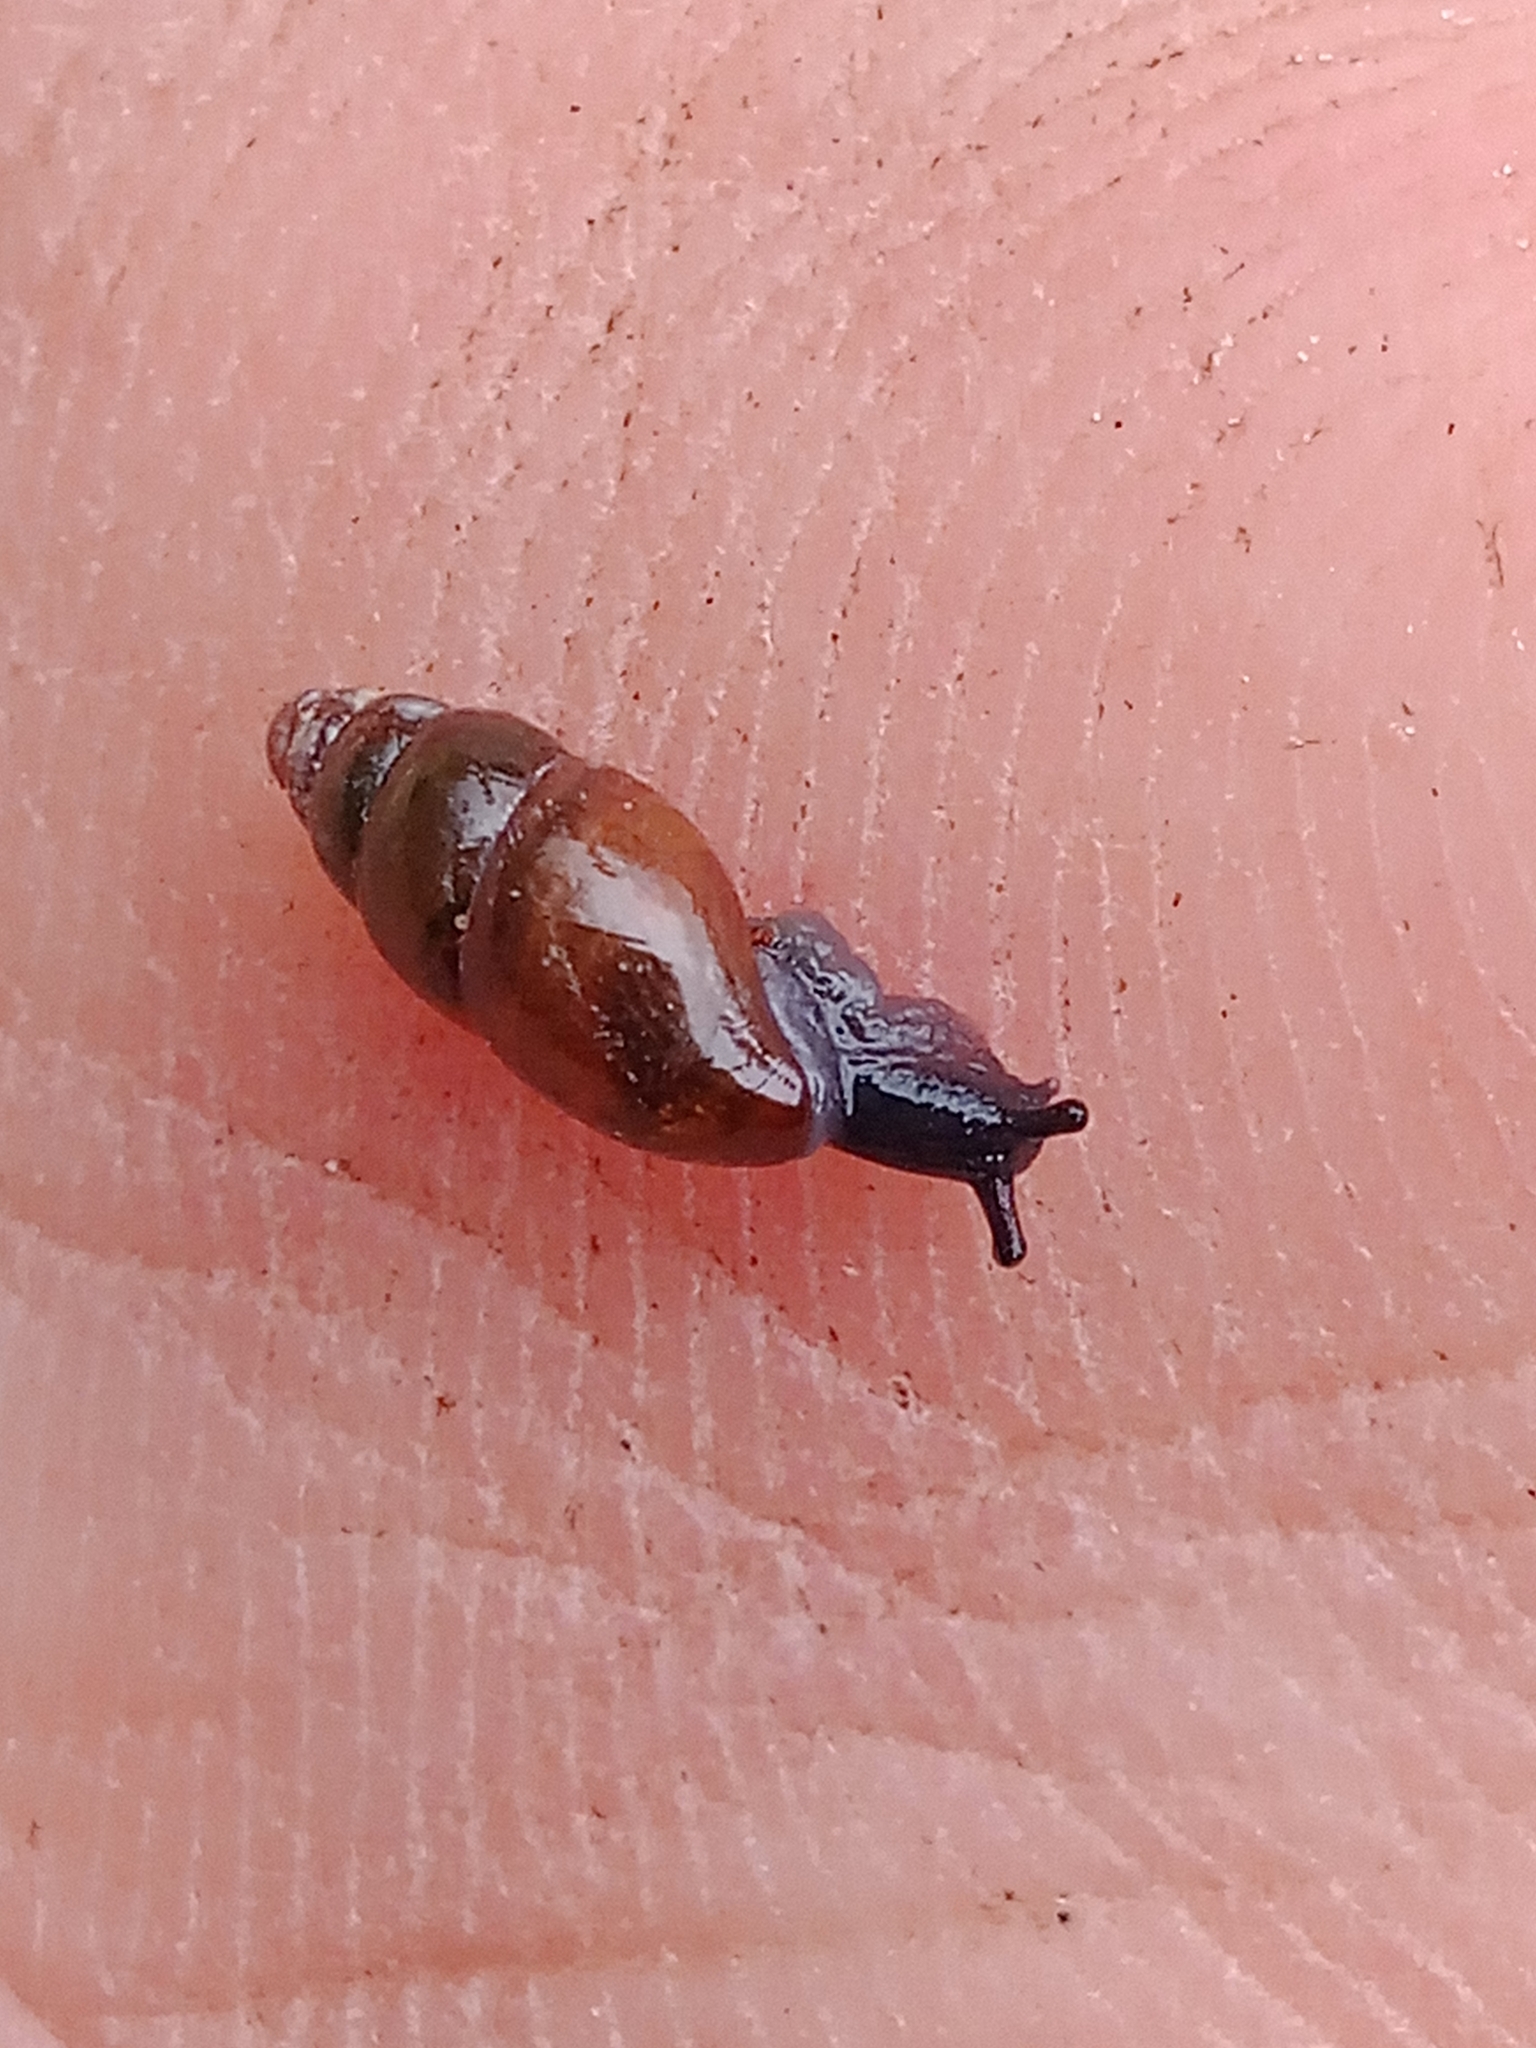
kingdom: Animalia
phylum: Mollusca
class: Gastropoda
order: Stylommatophora
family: Cochlicopidae
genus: Cochlicopa
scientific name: Cochlicopa lubrica
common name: Glossy pillar snail
